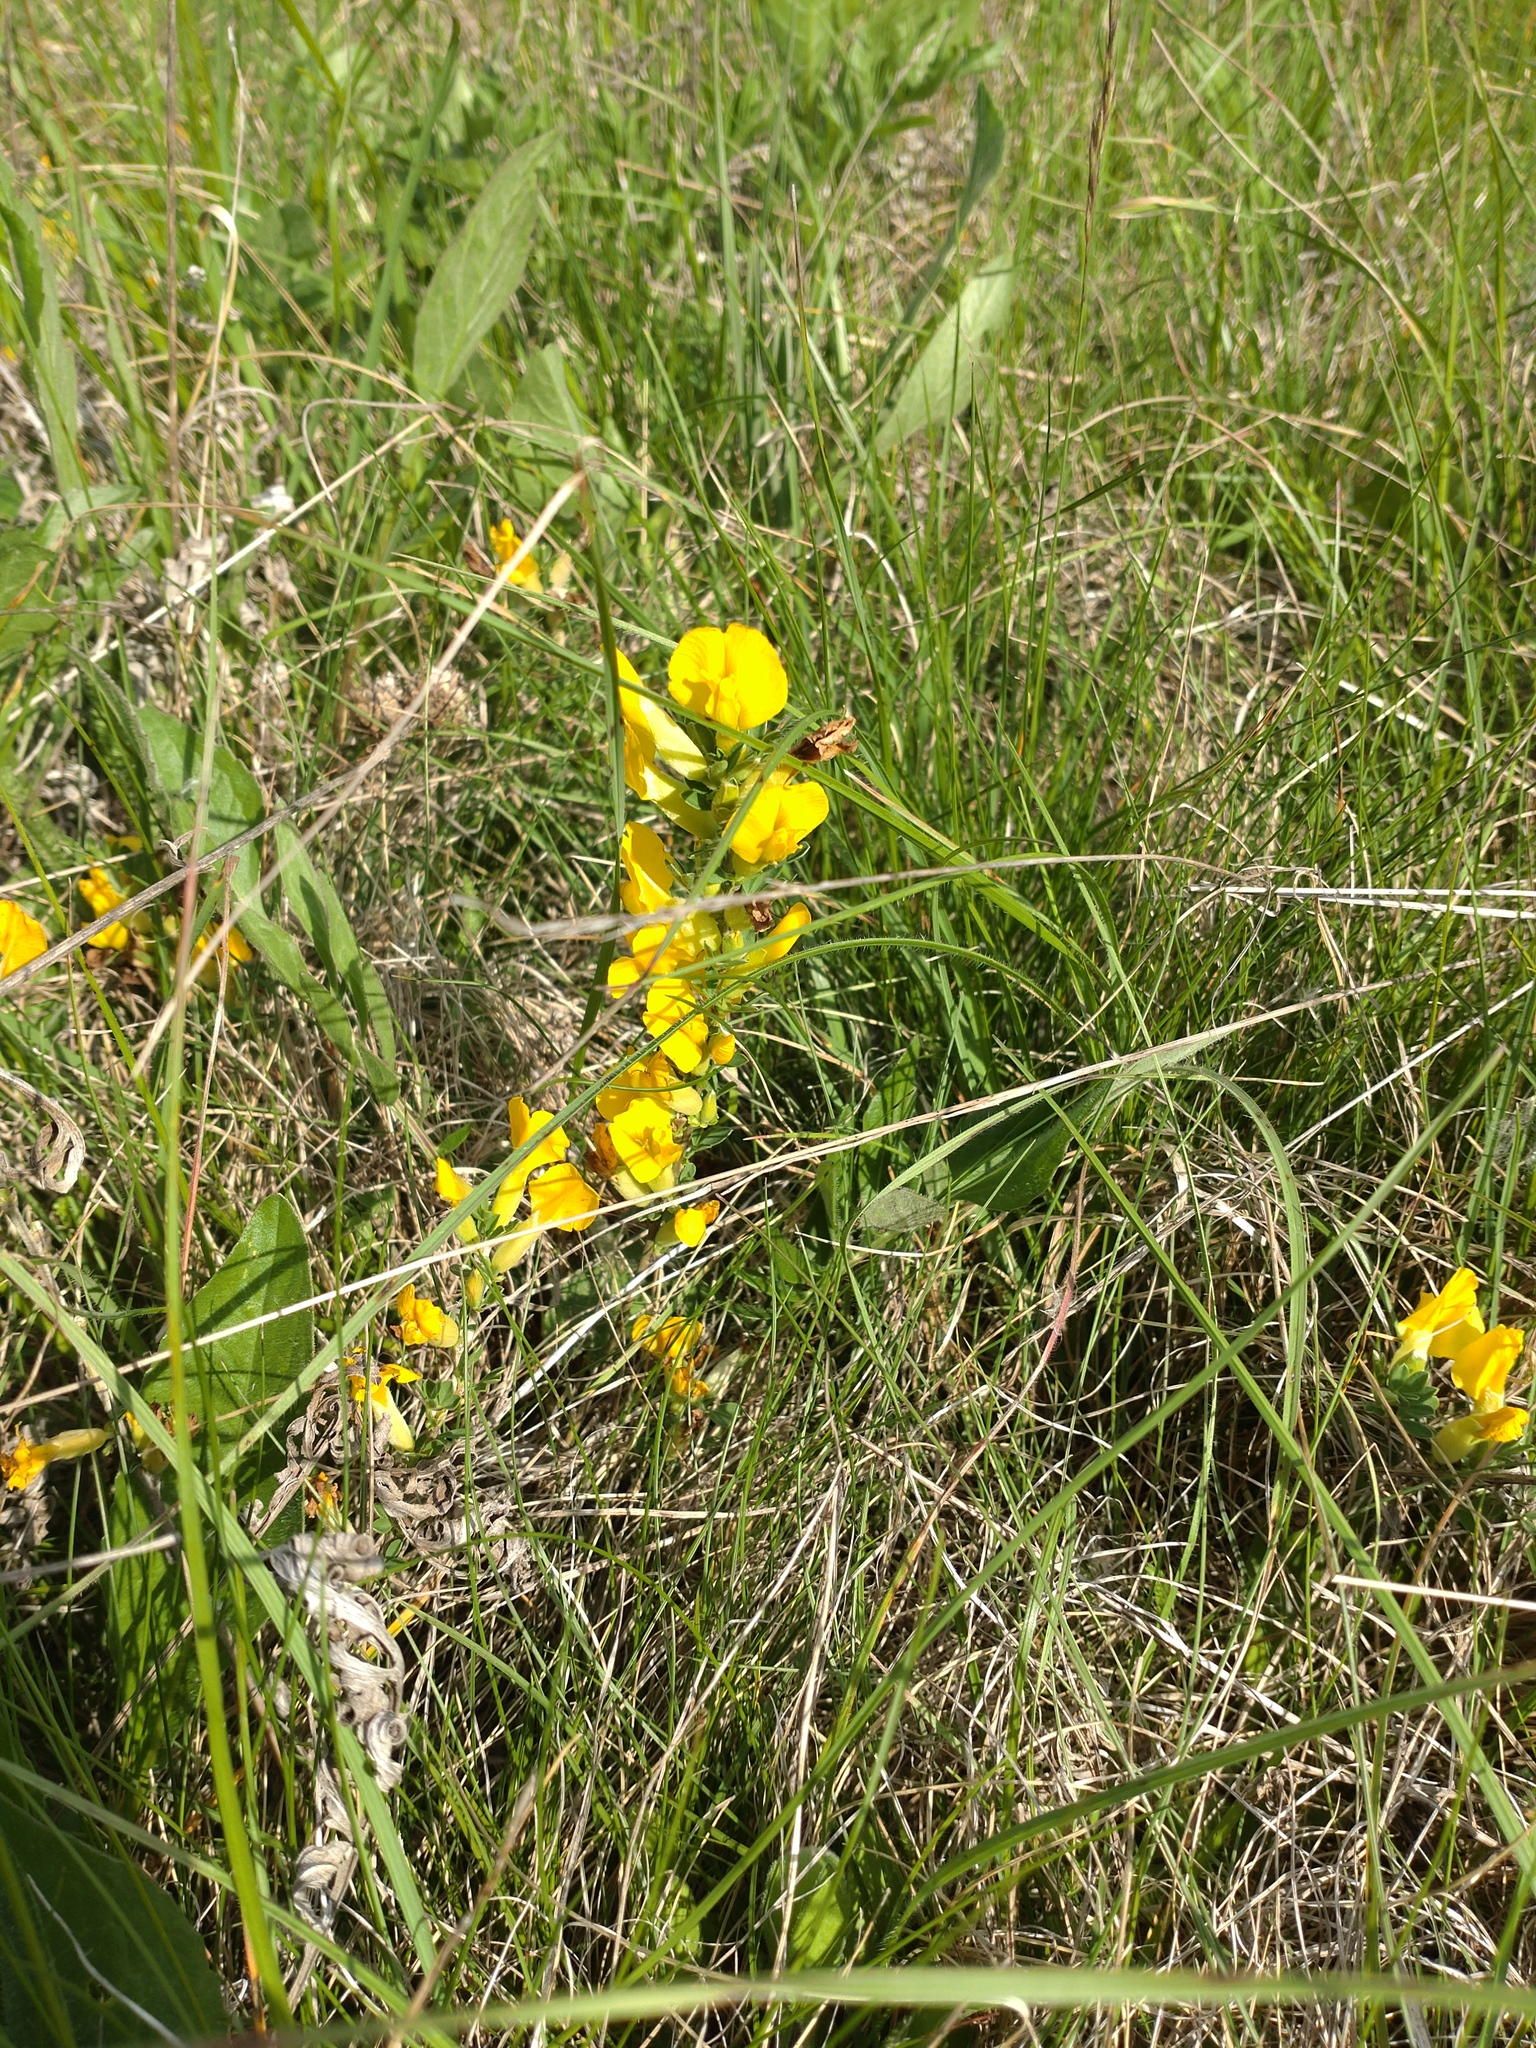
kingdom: Plantae
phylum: Tracheophyta
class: Magnoliopsida
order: Fabales
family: Fabaceae
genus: Chamaecytisus
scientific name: Chamaecytisus ratisbonensis
